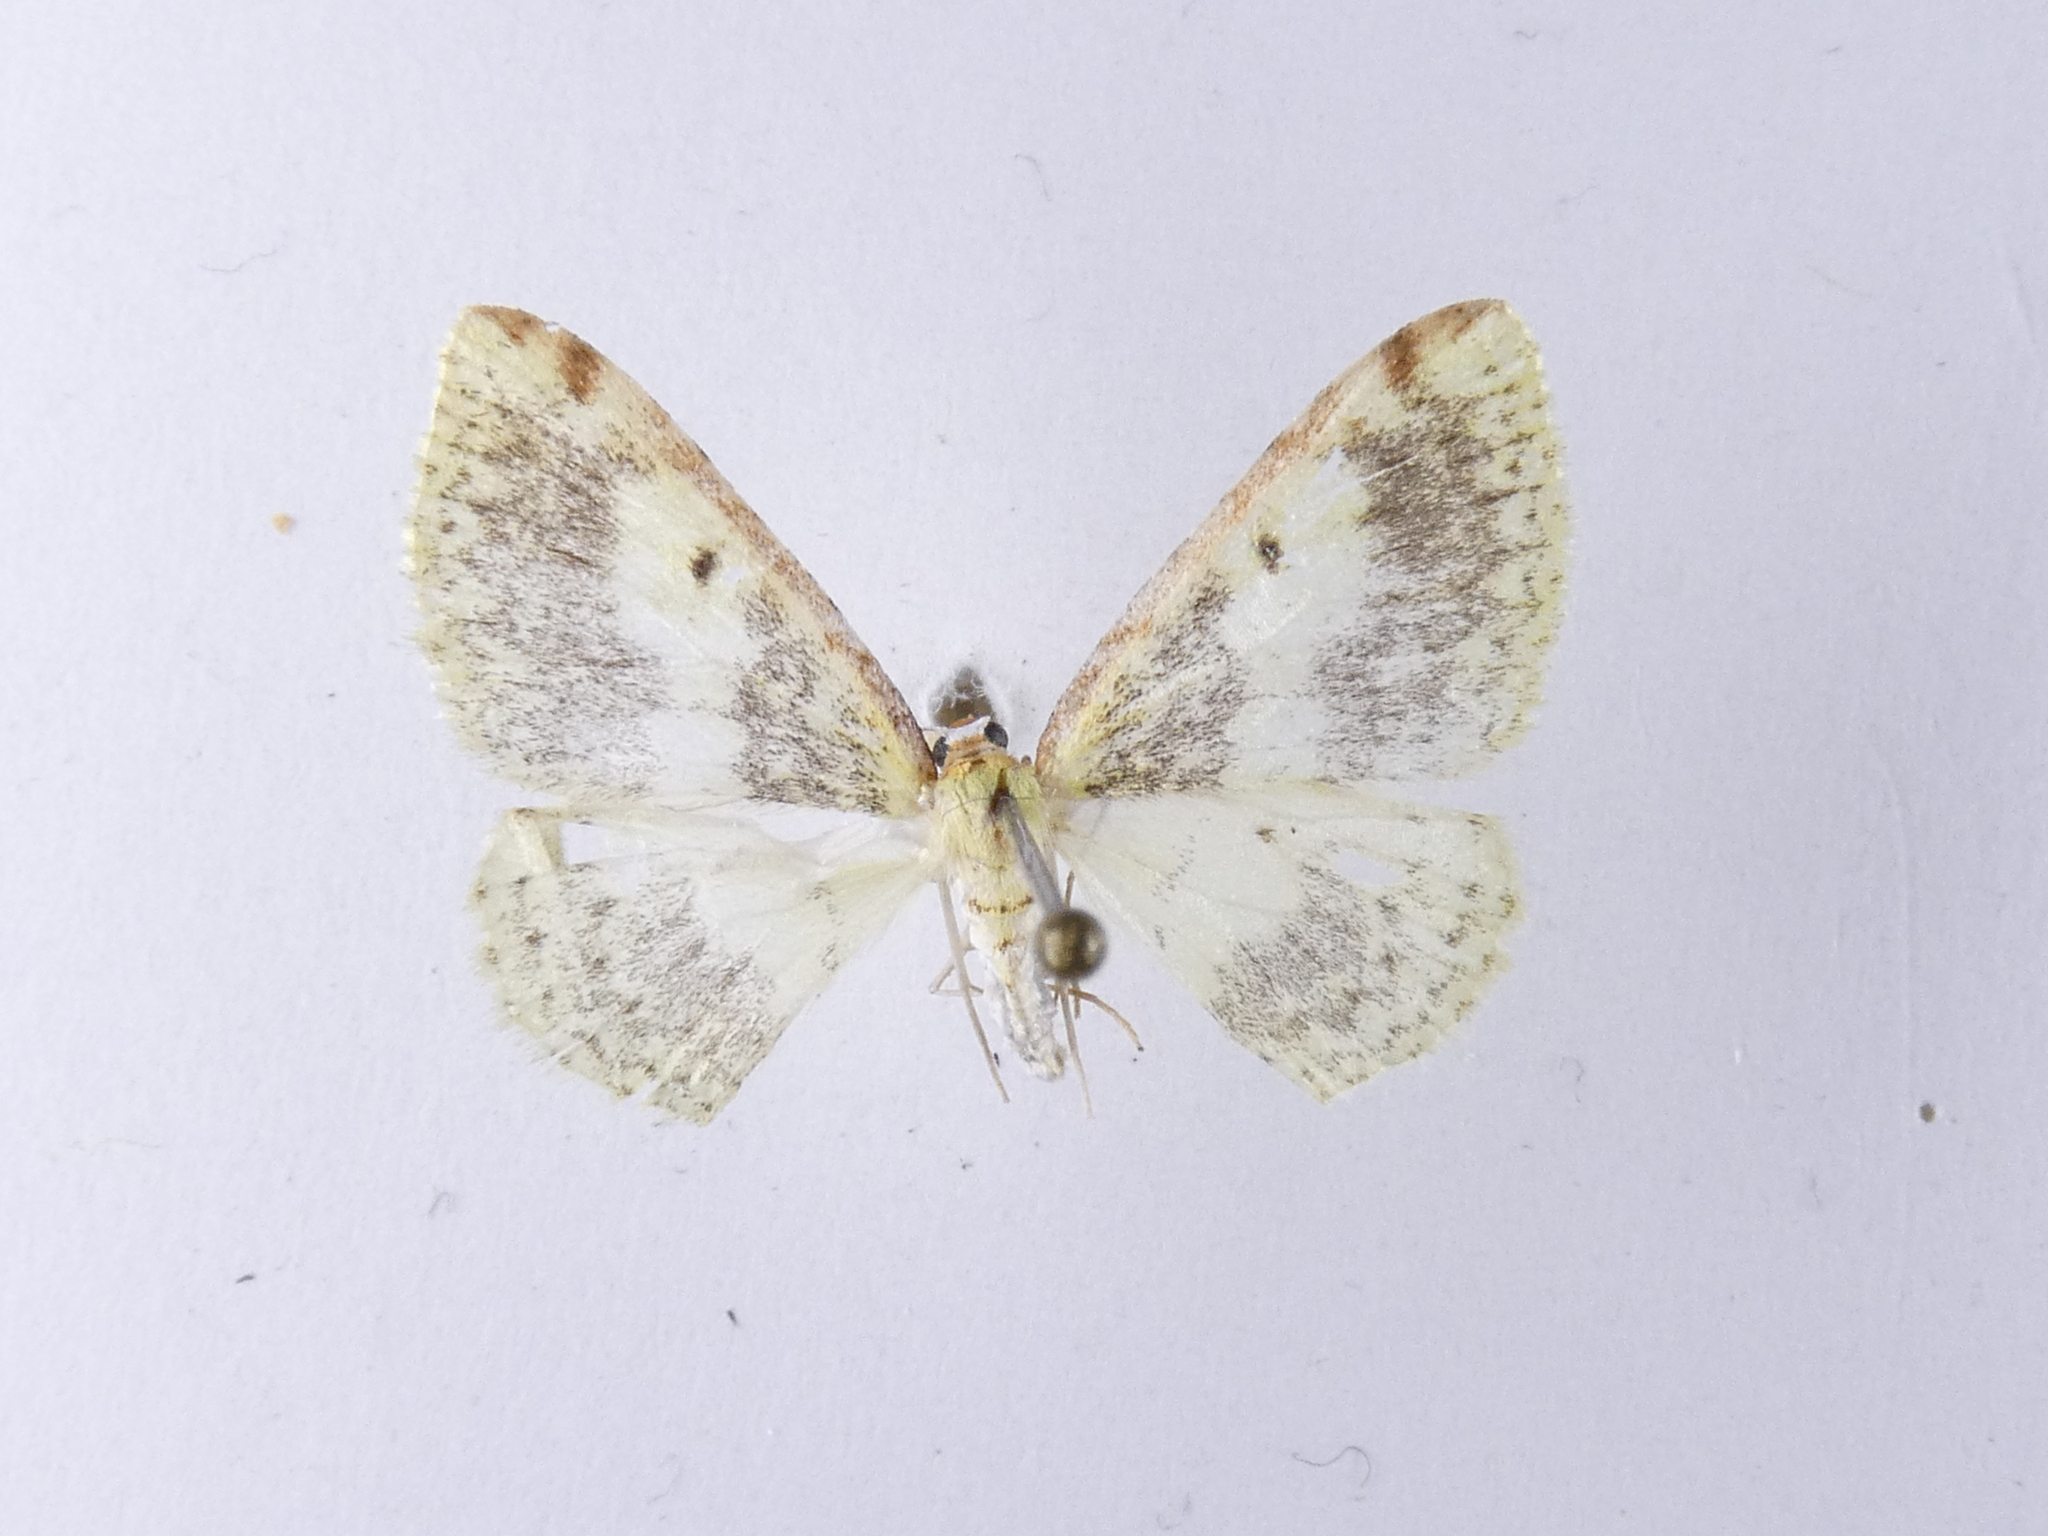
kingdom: Animalia
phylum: Arthropoda
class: Insecta
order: Lepidoptera
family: Geometridae
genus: Epiphryne
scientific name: Epiphryne undosata
